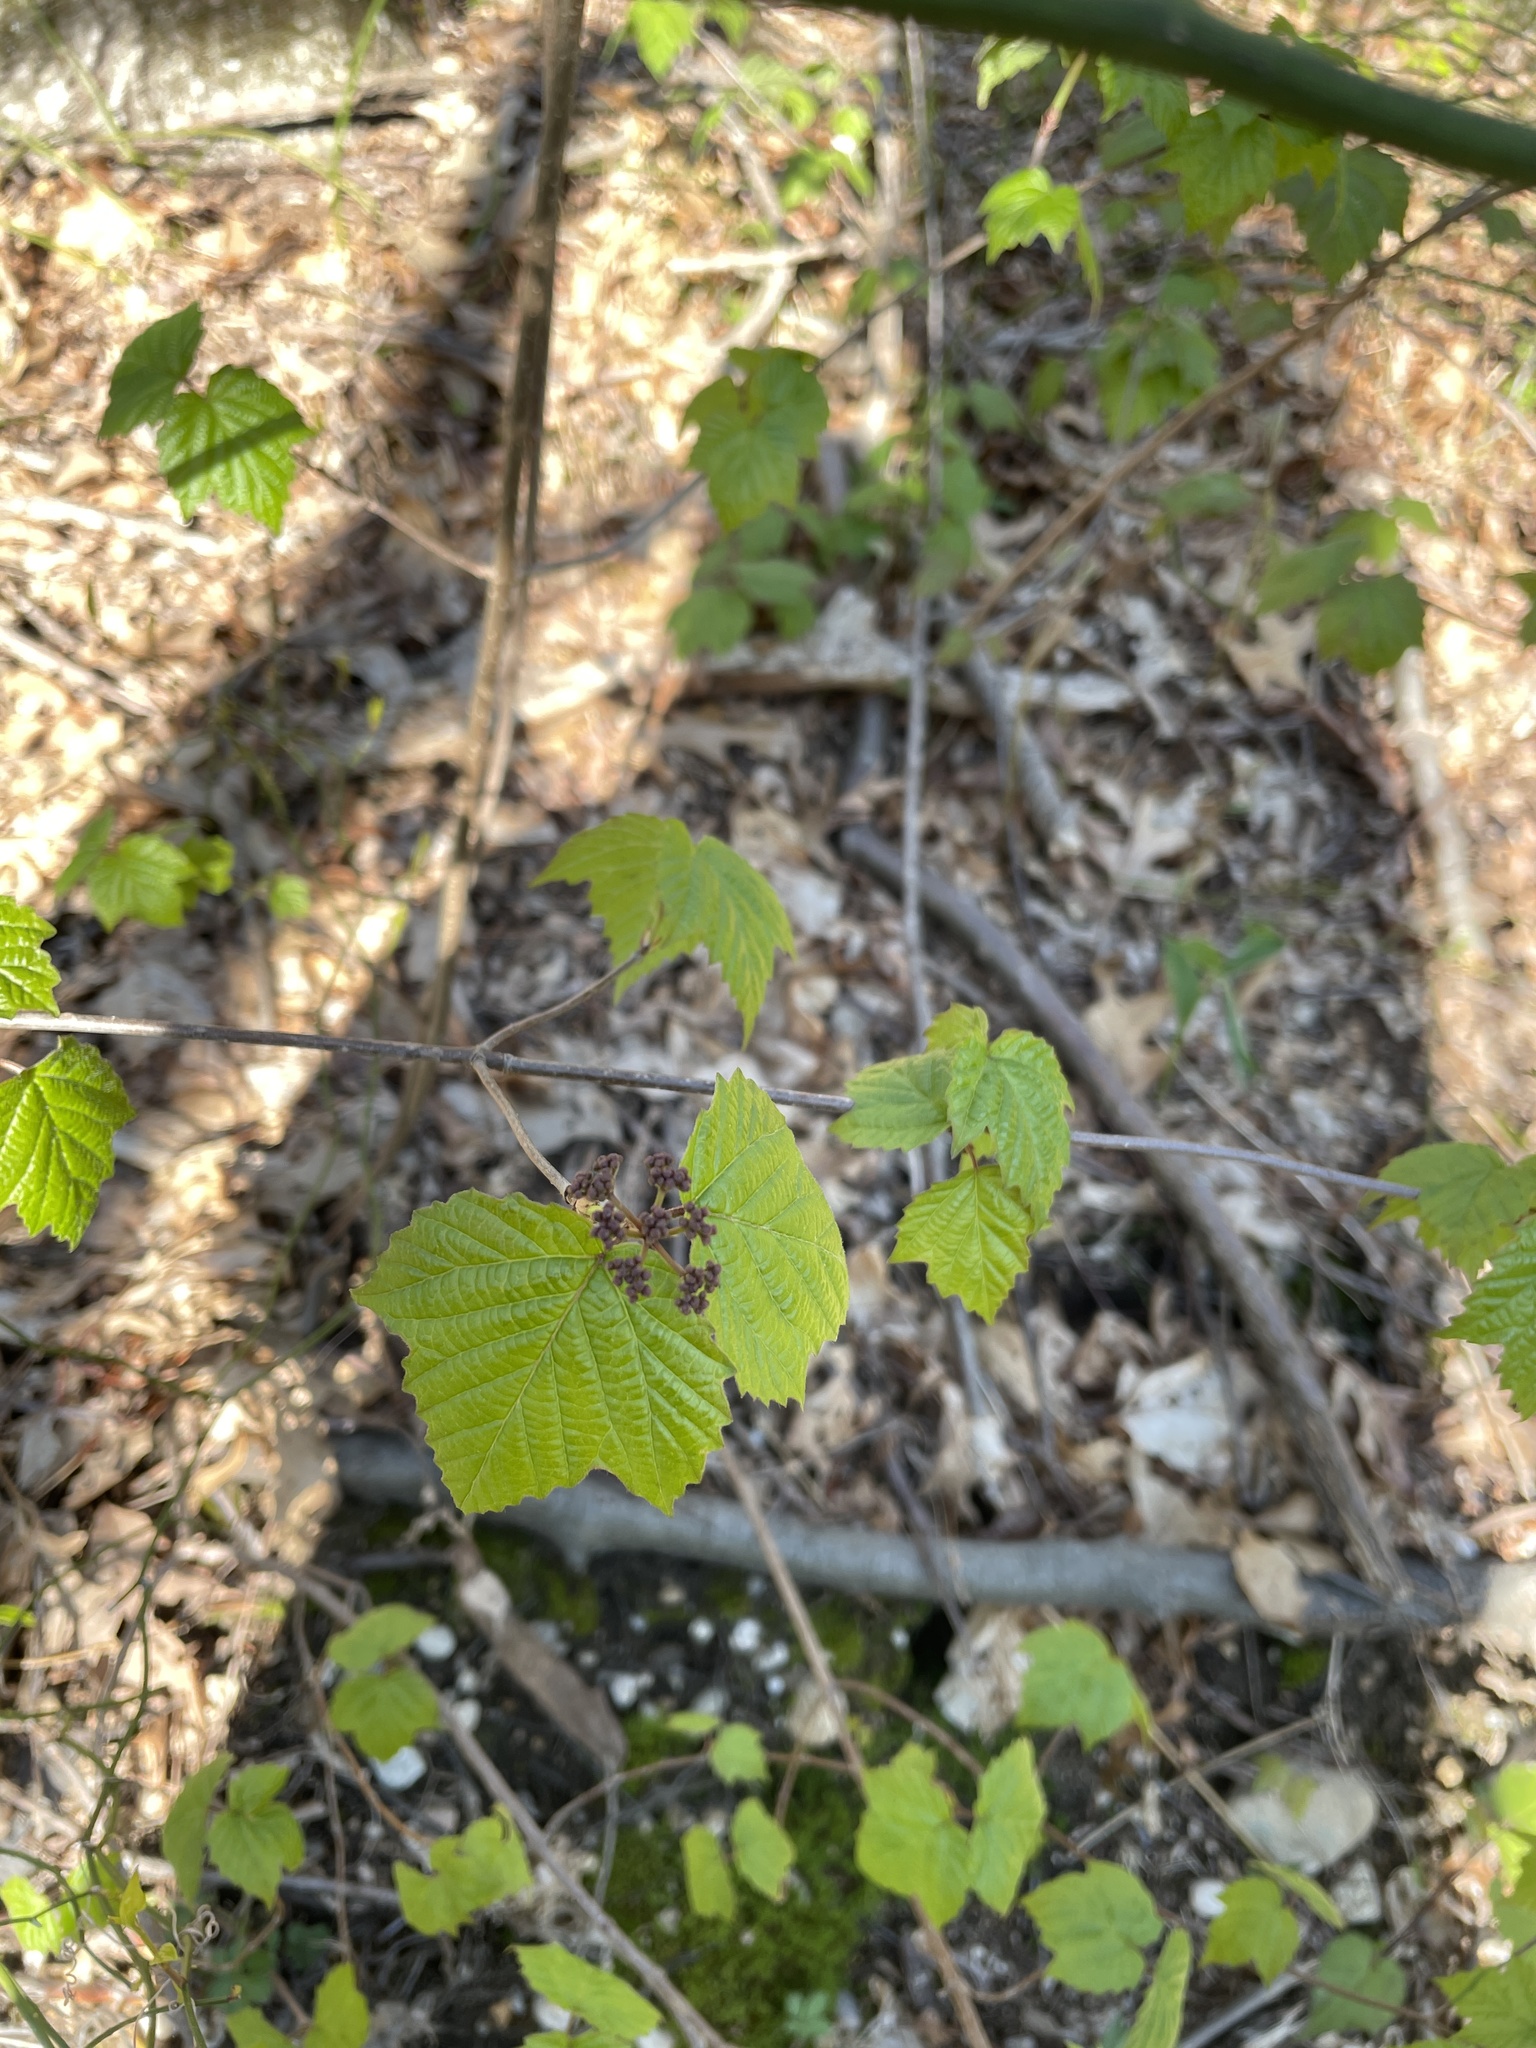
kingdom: Plantae
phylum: Tracheophyta
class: Magnoliopsida
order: Dipsacales
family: Viburnaceae
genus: Viburnum
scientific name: Viburnum acerifolium
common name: Dockmackie
